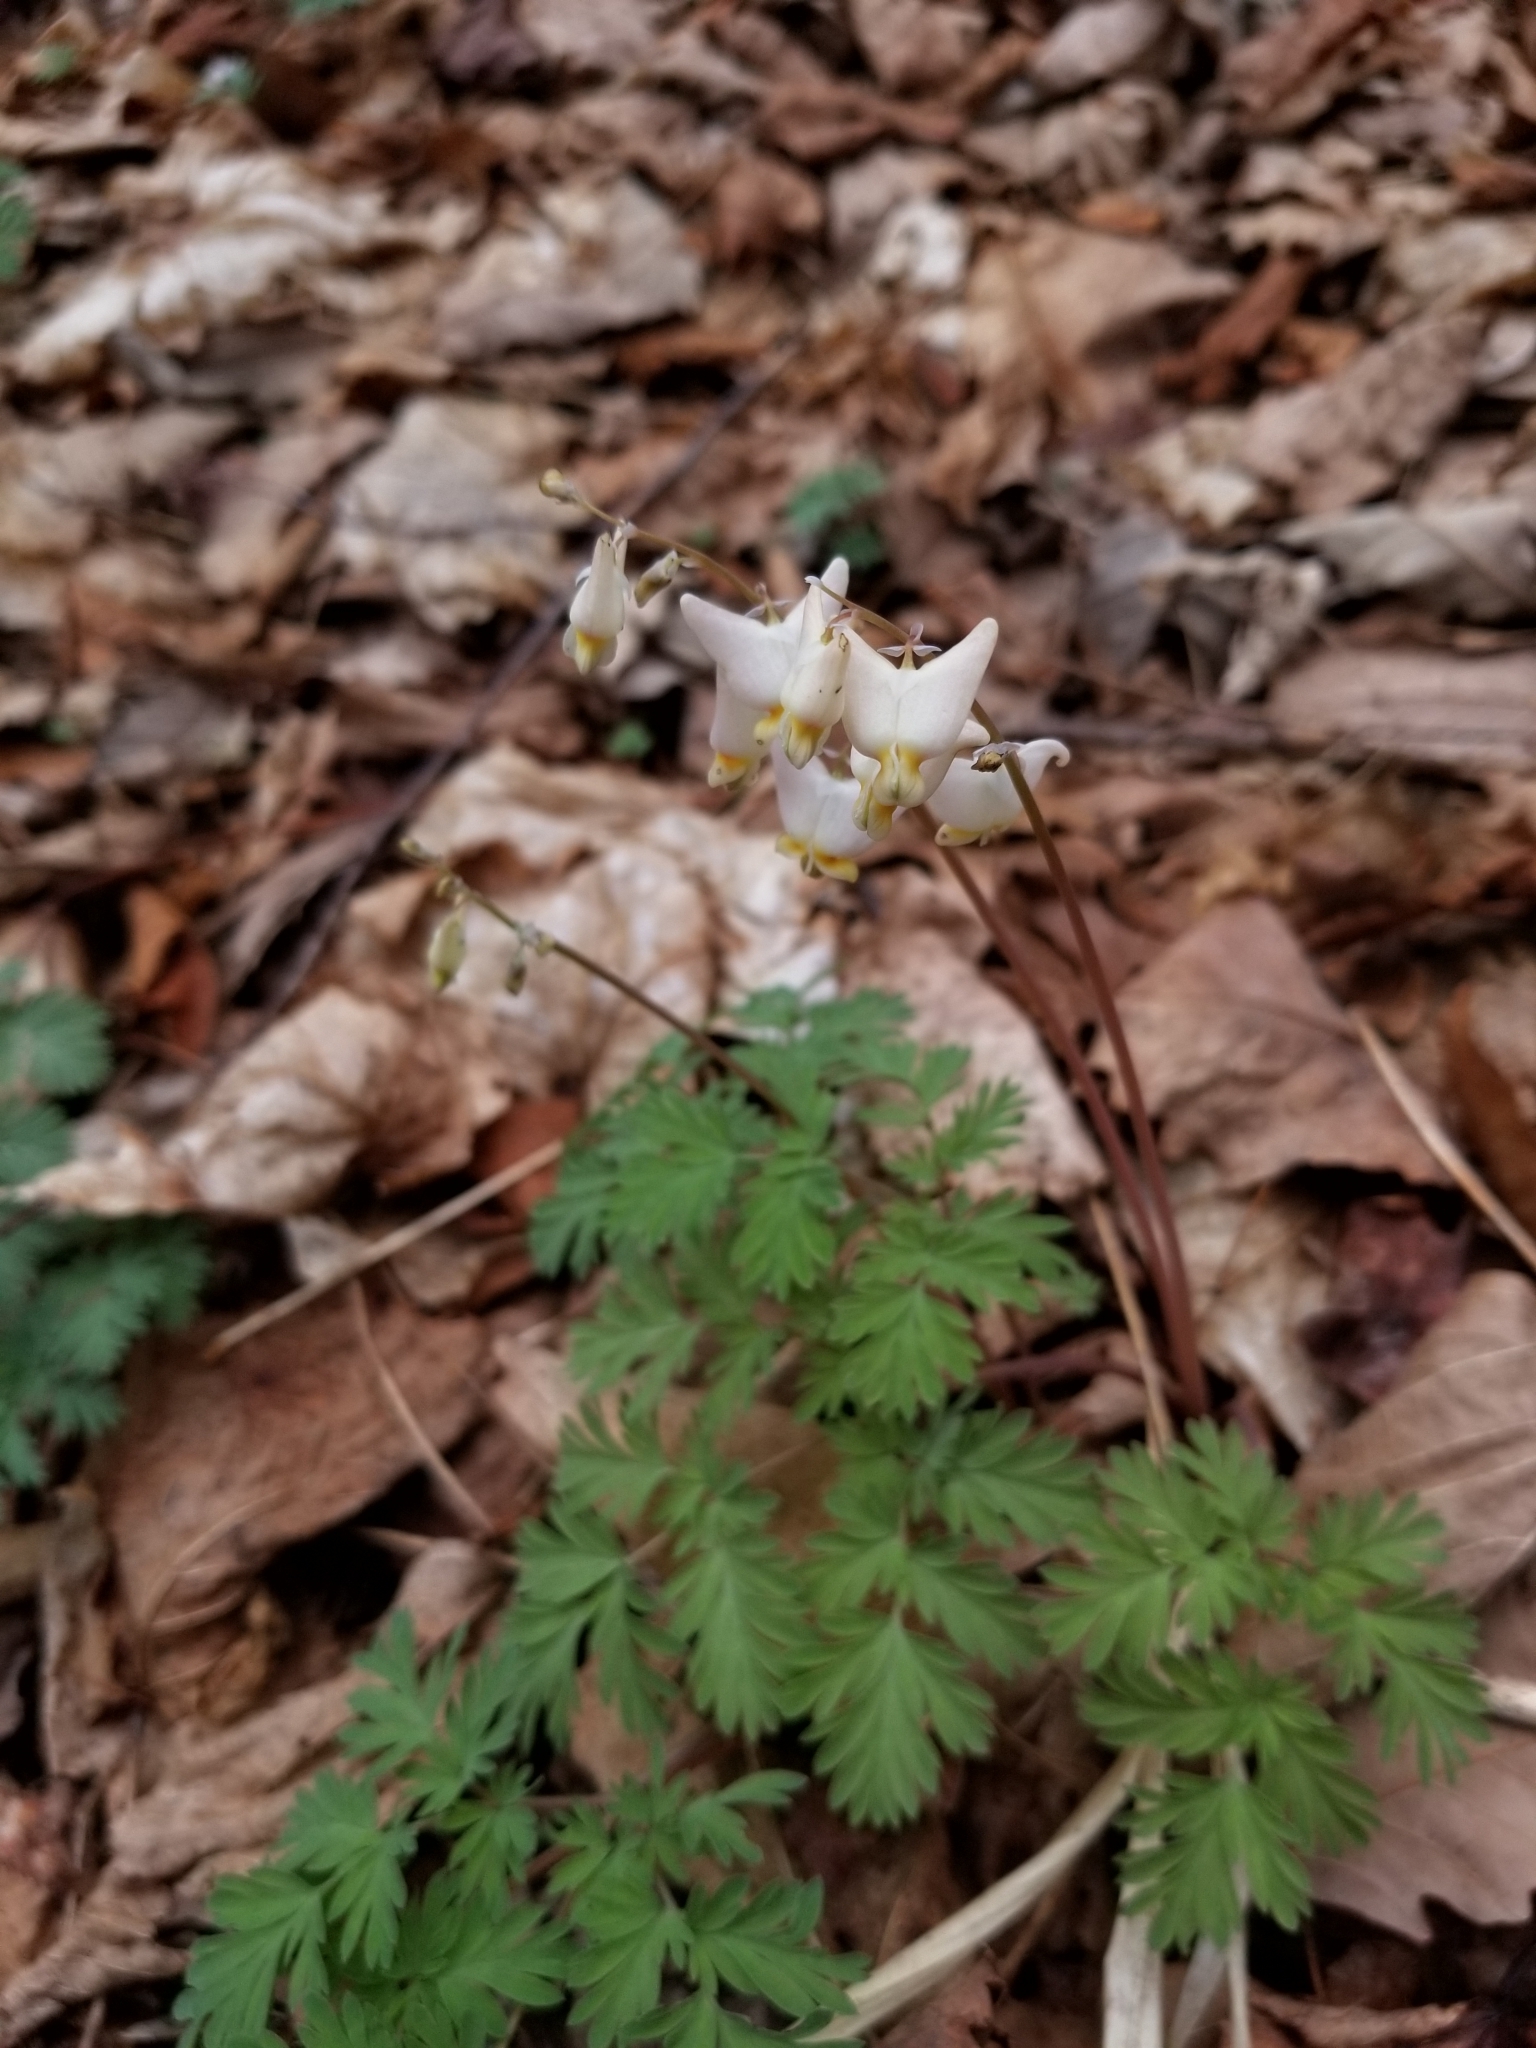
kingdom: Plantae
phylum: Tracheophyta
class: Magnoliopsida
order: Ranunculales
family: Papaveraceae
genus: Dicentra
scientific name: Dicentra cucullaria
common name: Dutchman's breeches
